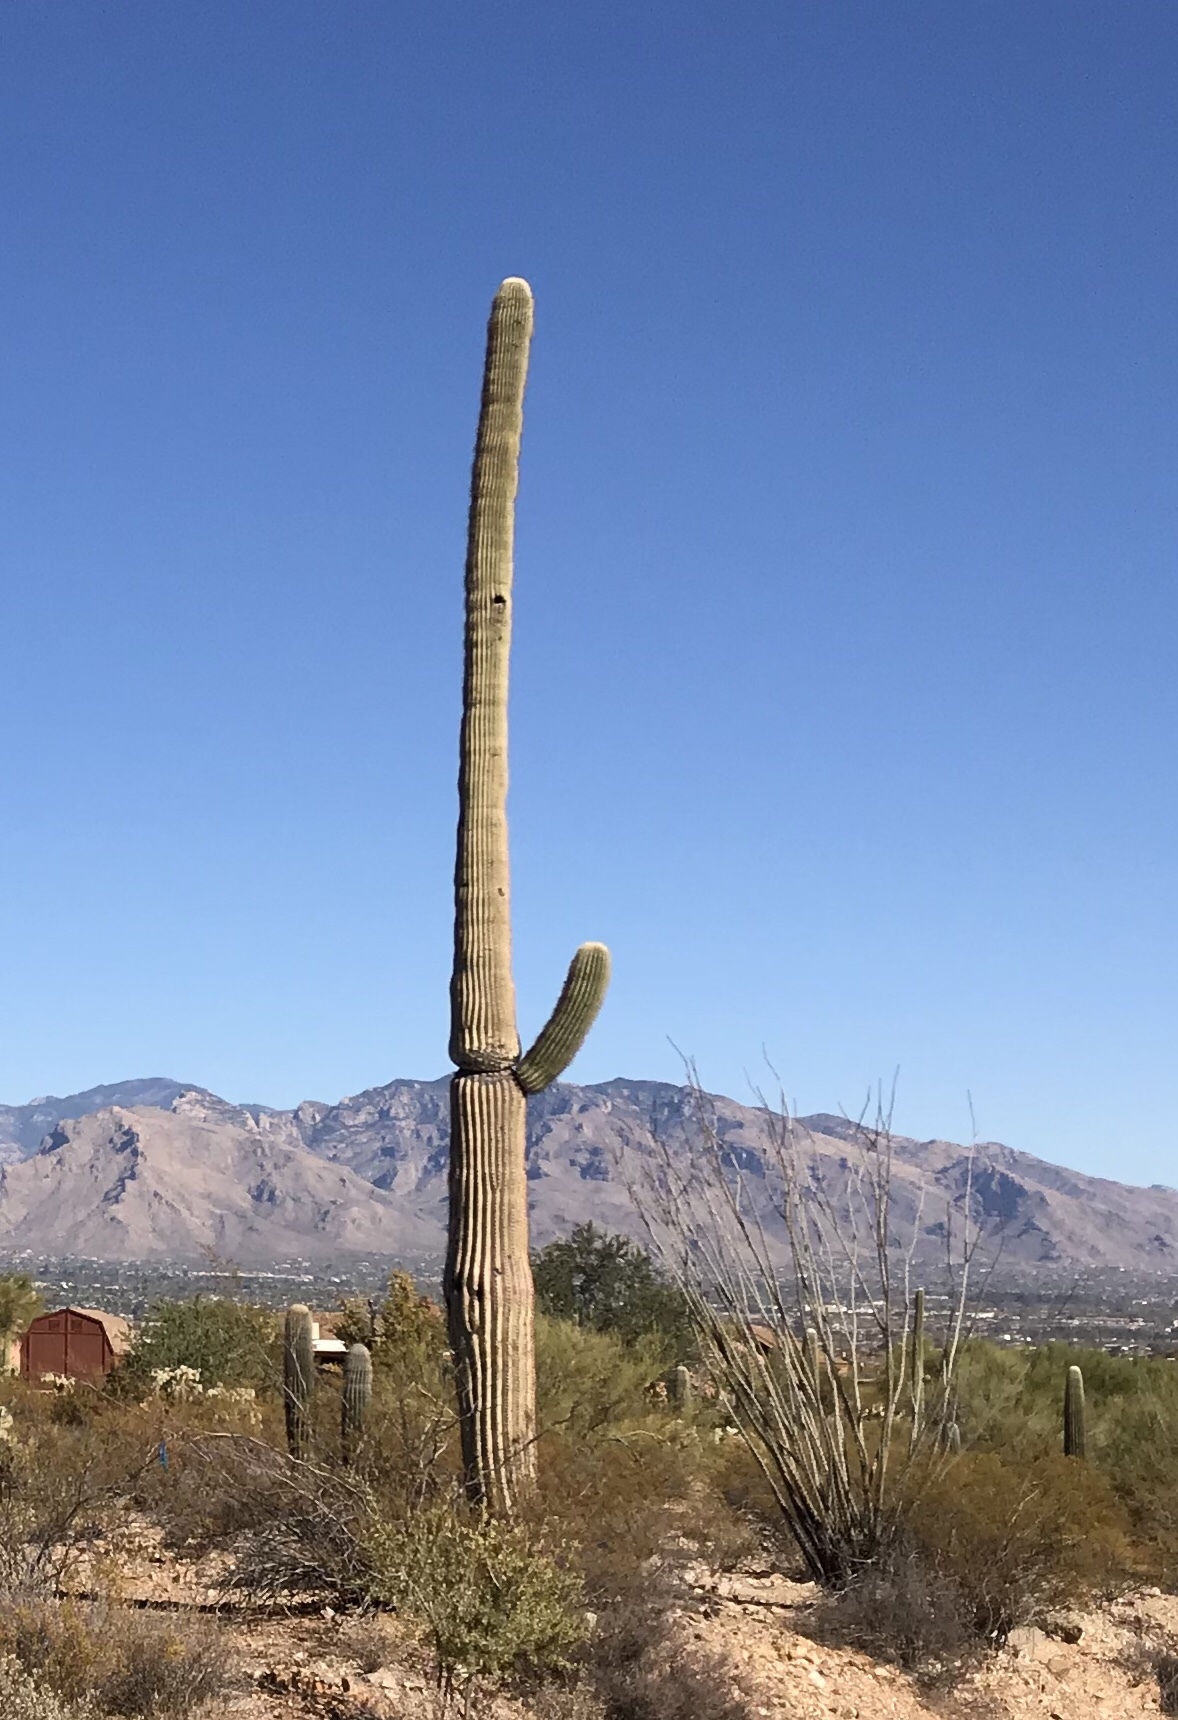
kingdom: Plantae
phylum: Tracheophyta
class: Magnoliopsida
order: Caryophyllales
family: Cactaceae
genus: Carnegiea
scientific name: Carnegiea gigantea
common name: Saguaro
